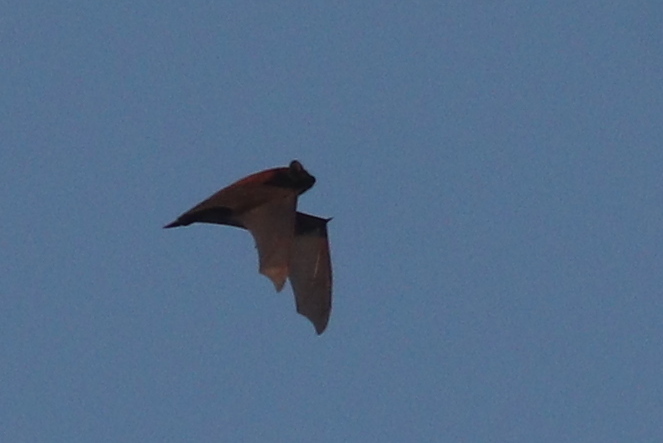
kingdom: Animalia
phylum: Chordata
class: Mammalia
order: Chiroptera
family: Vespertilionidae
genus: Nyctalus
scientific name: Nyctalus noctula
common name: Noctule
